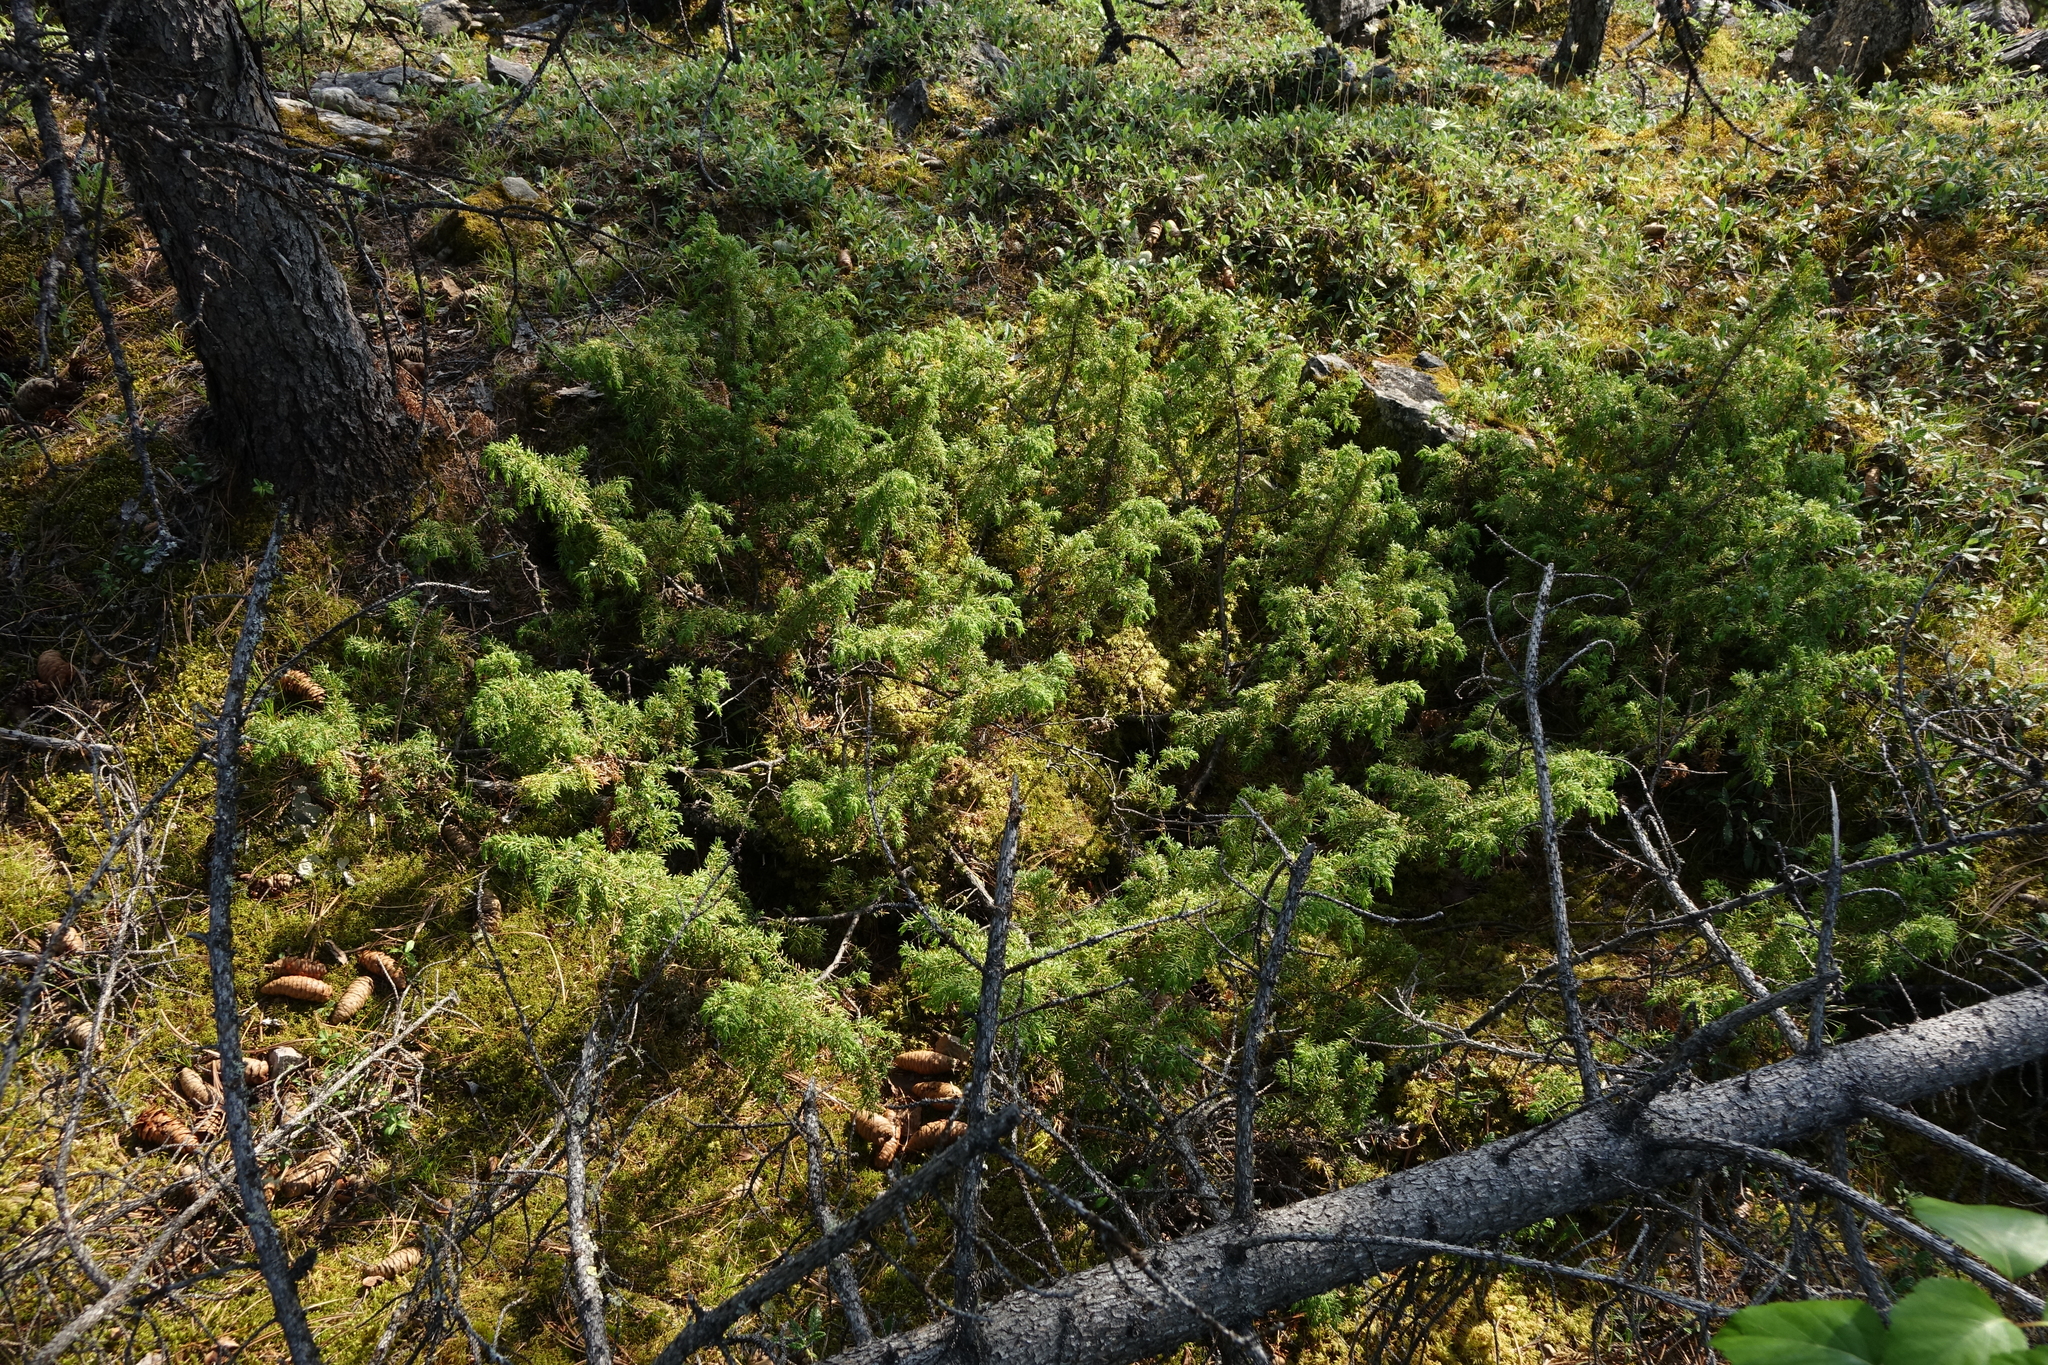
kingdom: Plantae
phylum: Tracheophyta
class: Pinopsida
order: Pinales
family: Cupressaceae
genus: Juniperus
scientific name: Juniperus communis
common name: Common juniper
